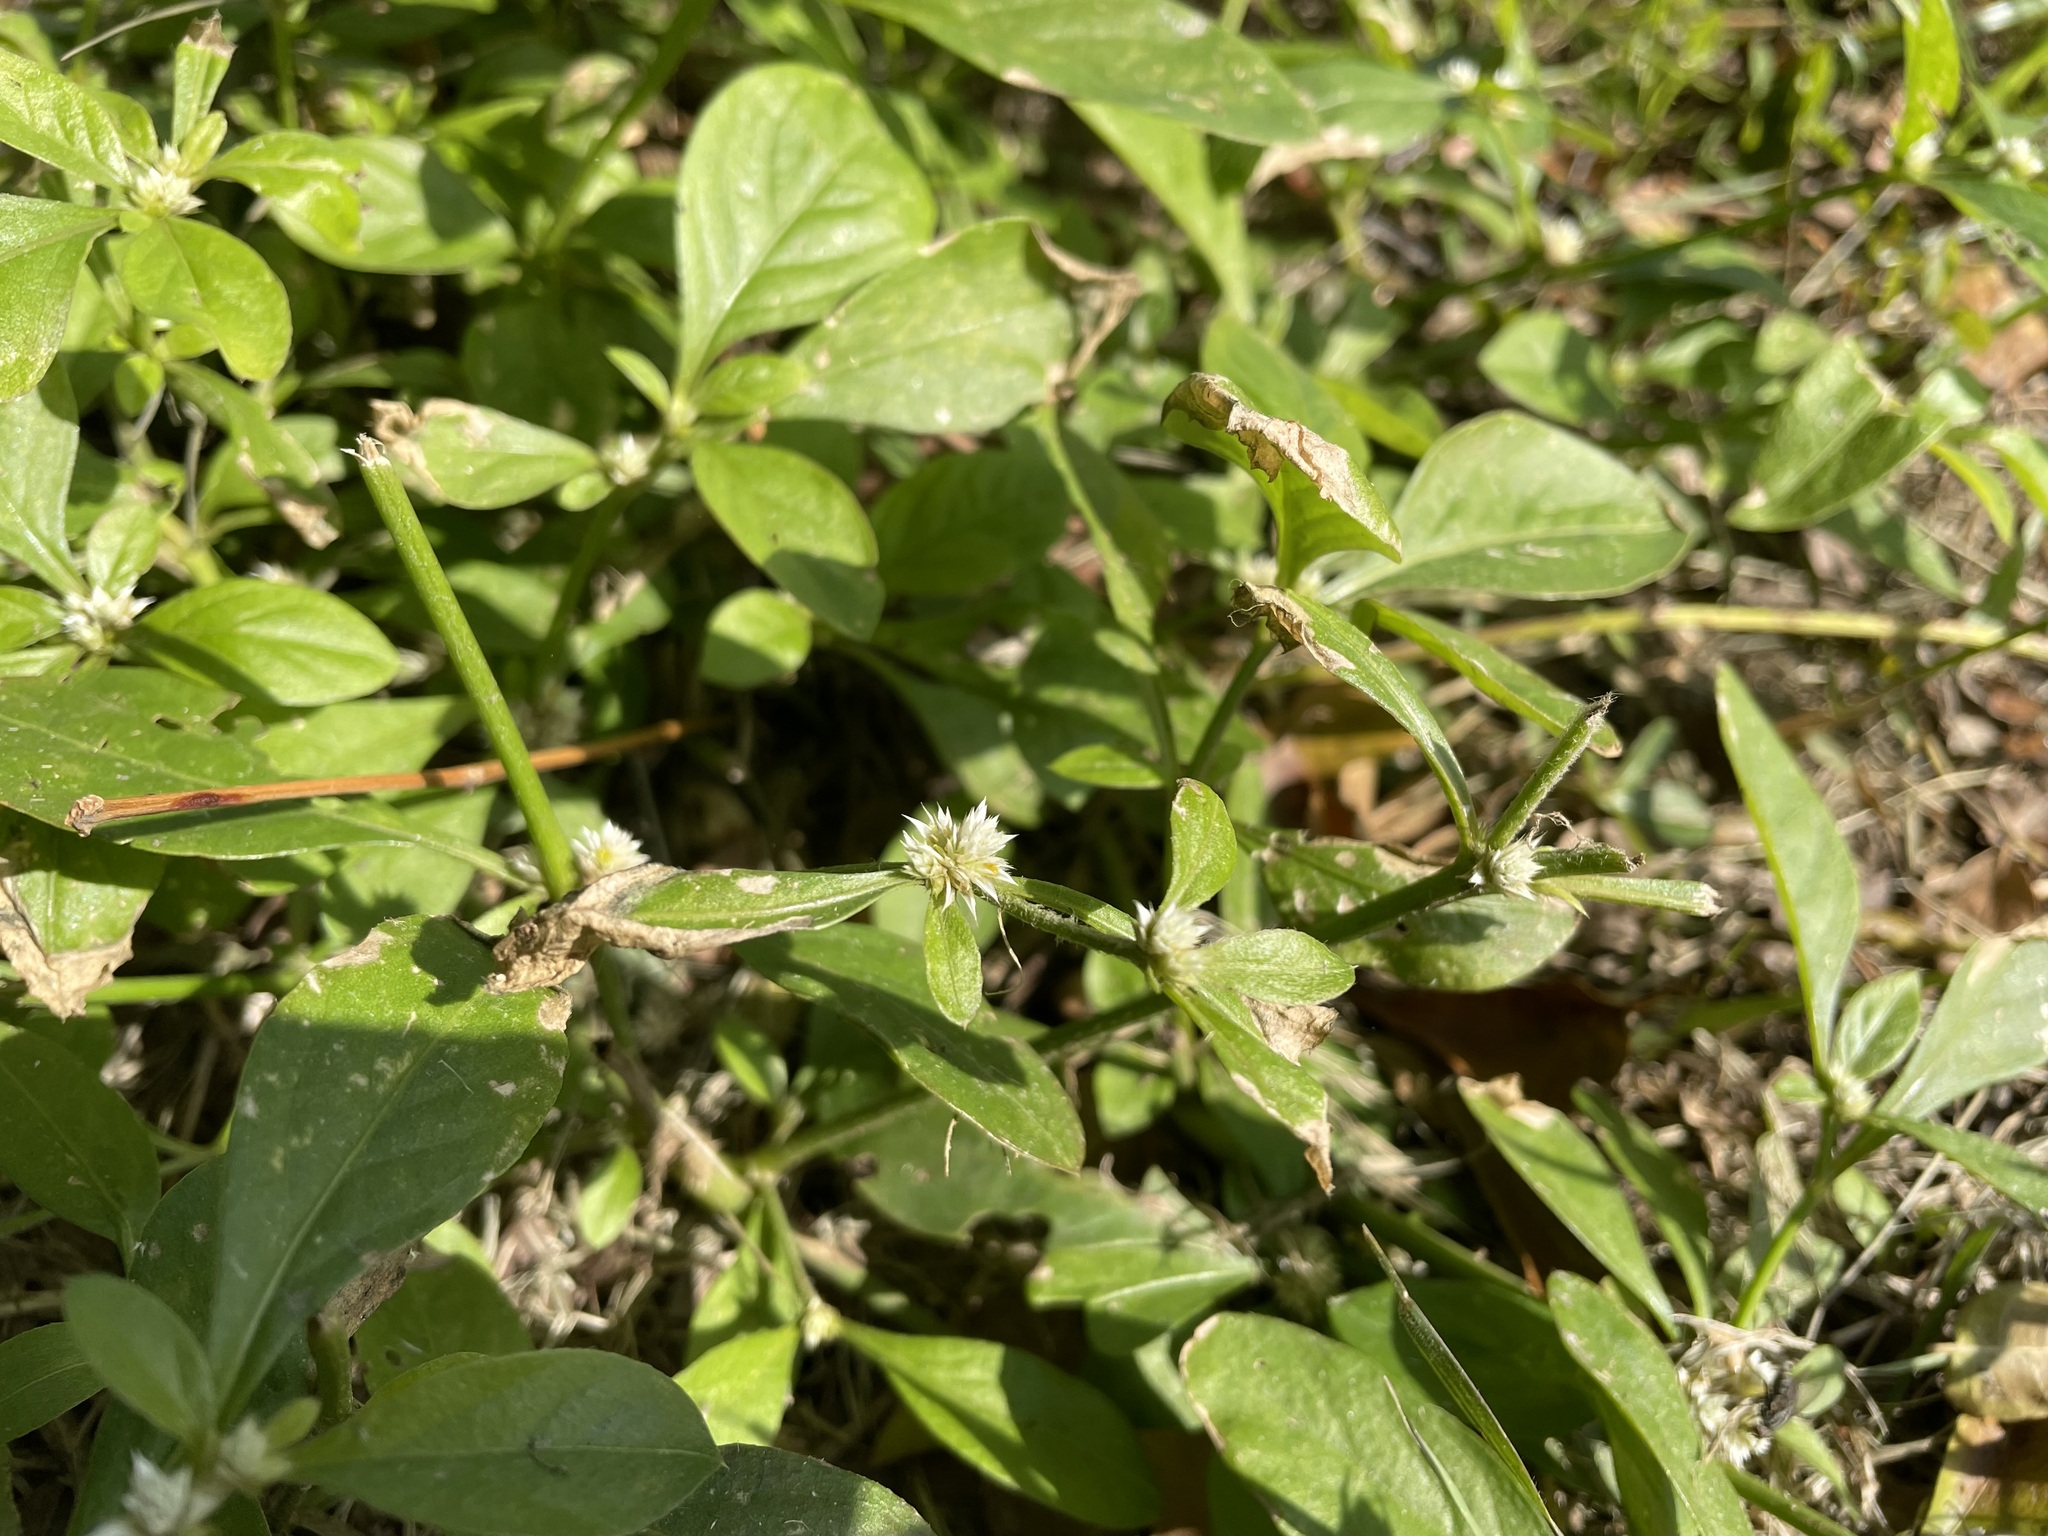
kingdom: Plantae
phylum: Tracheophyta
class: Magnoliopsida
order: Caryophyllales
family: Amaranthaceae
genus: Alternanthera
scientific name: Alternanthera bettzickiana
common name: Calico-plant
